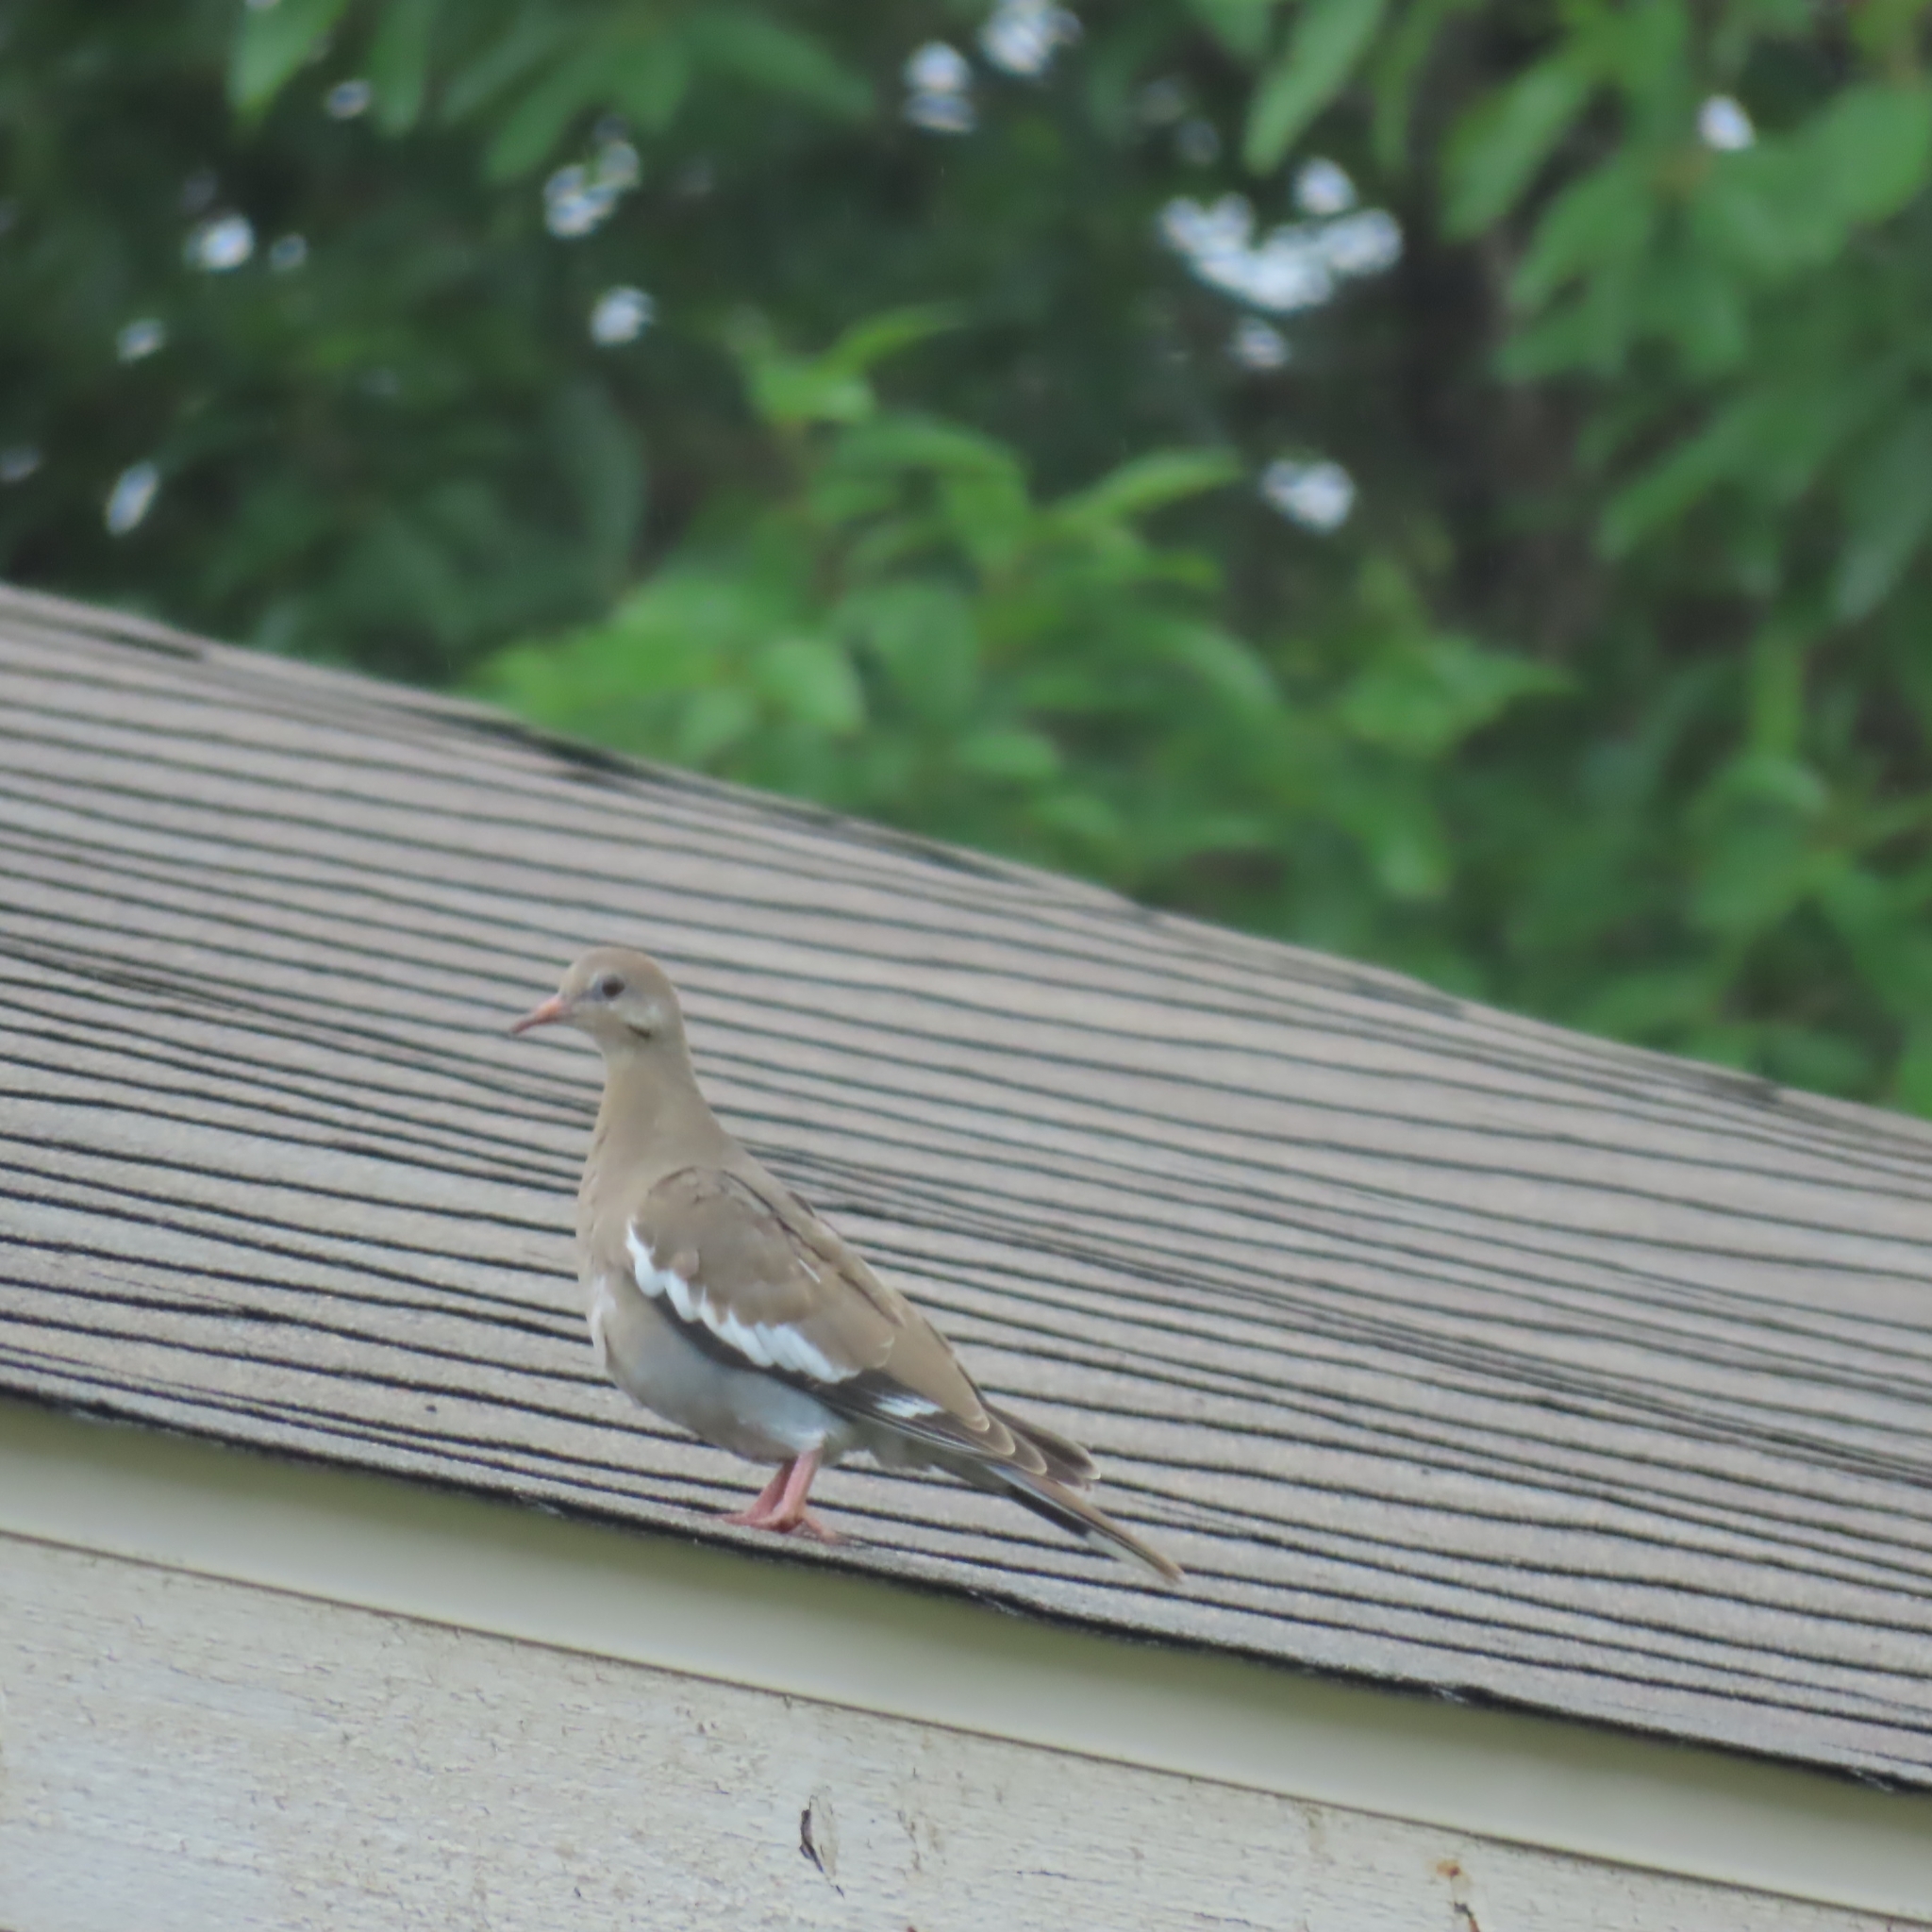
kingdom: Animalia
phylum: Chordata
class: Aves
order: Columbiformes
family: Columbidae
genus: Zenaida
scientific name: Zenaida asiatica
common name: White-winged dove
